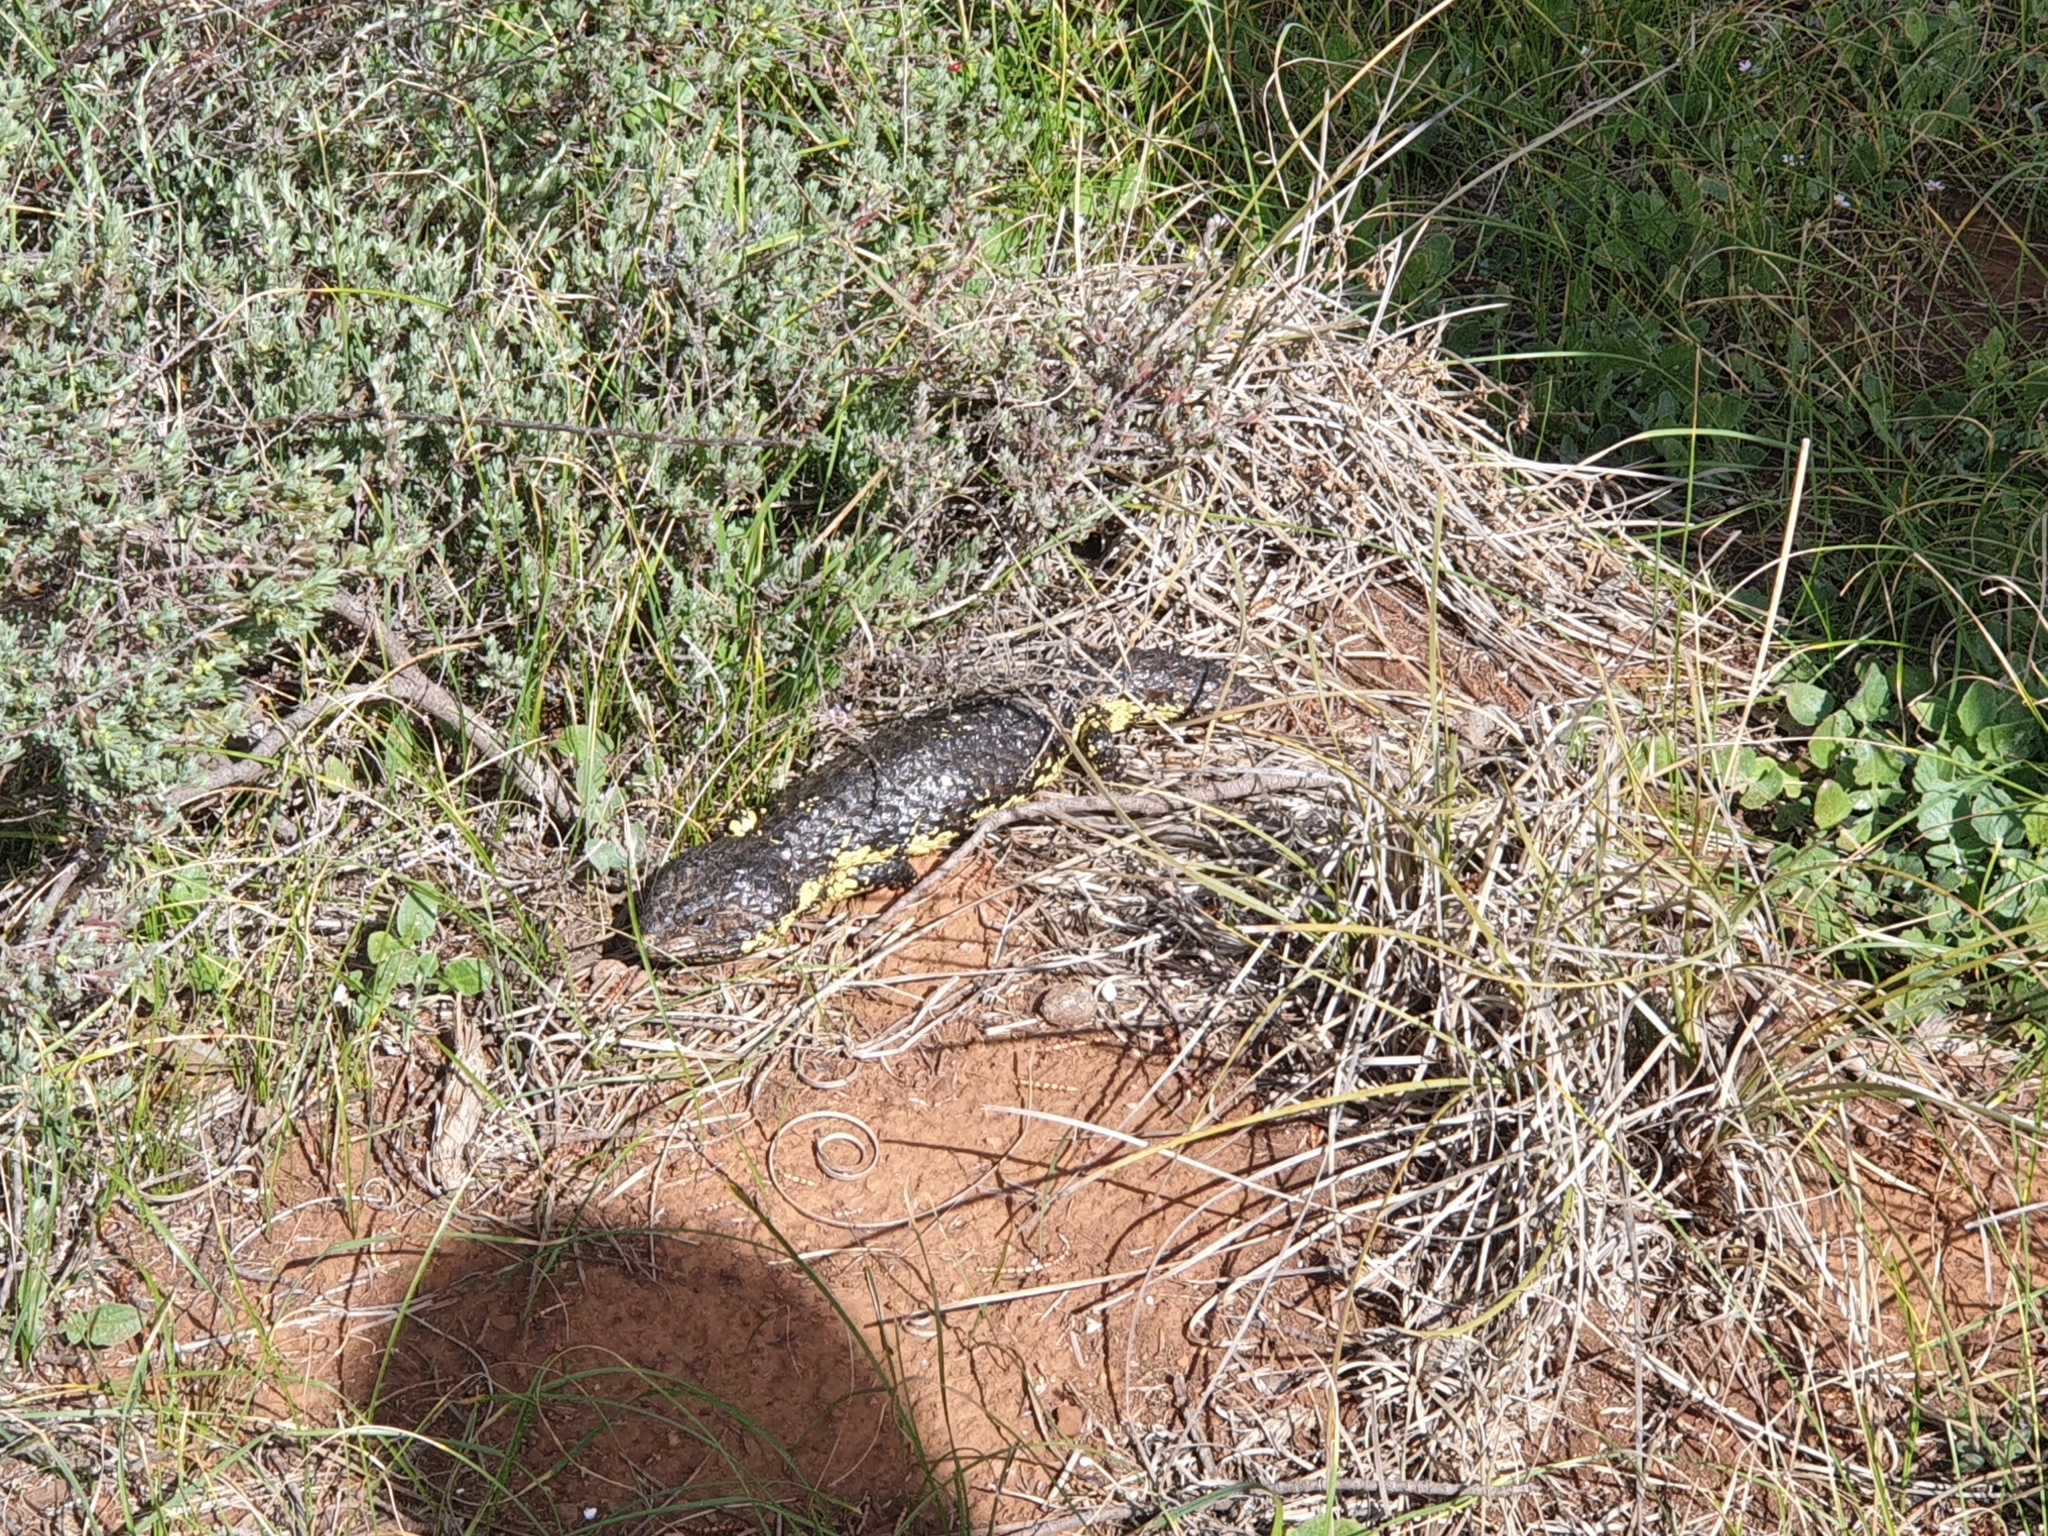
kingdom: Animalia
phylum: Chordata
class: Squamata
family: Scincidae
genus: Tiliqua
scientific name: Tiliqua rugosa
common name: Pinecone lizard
